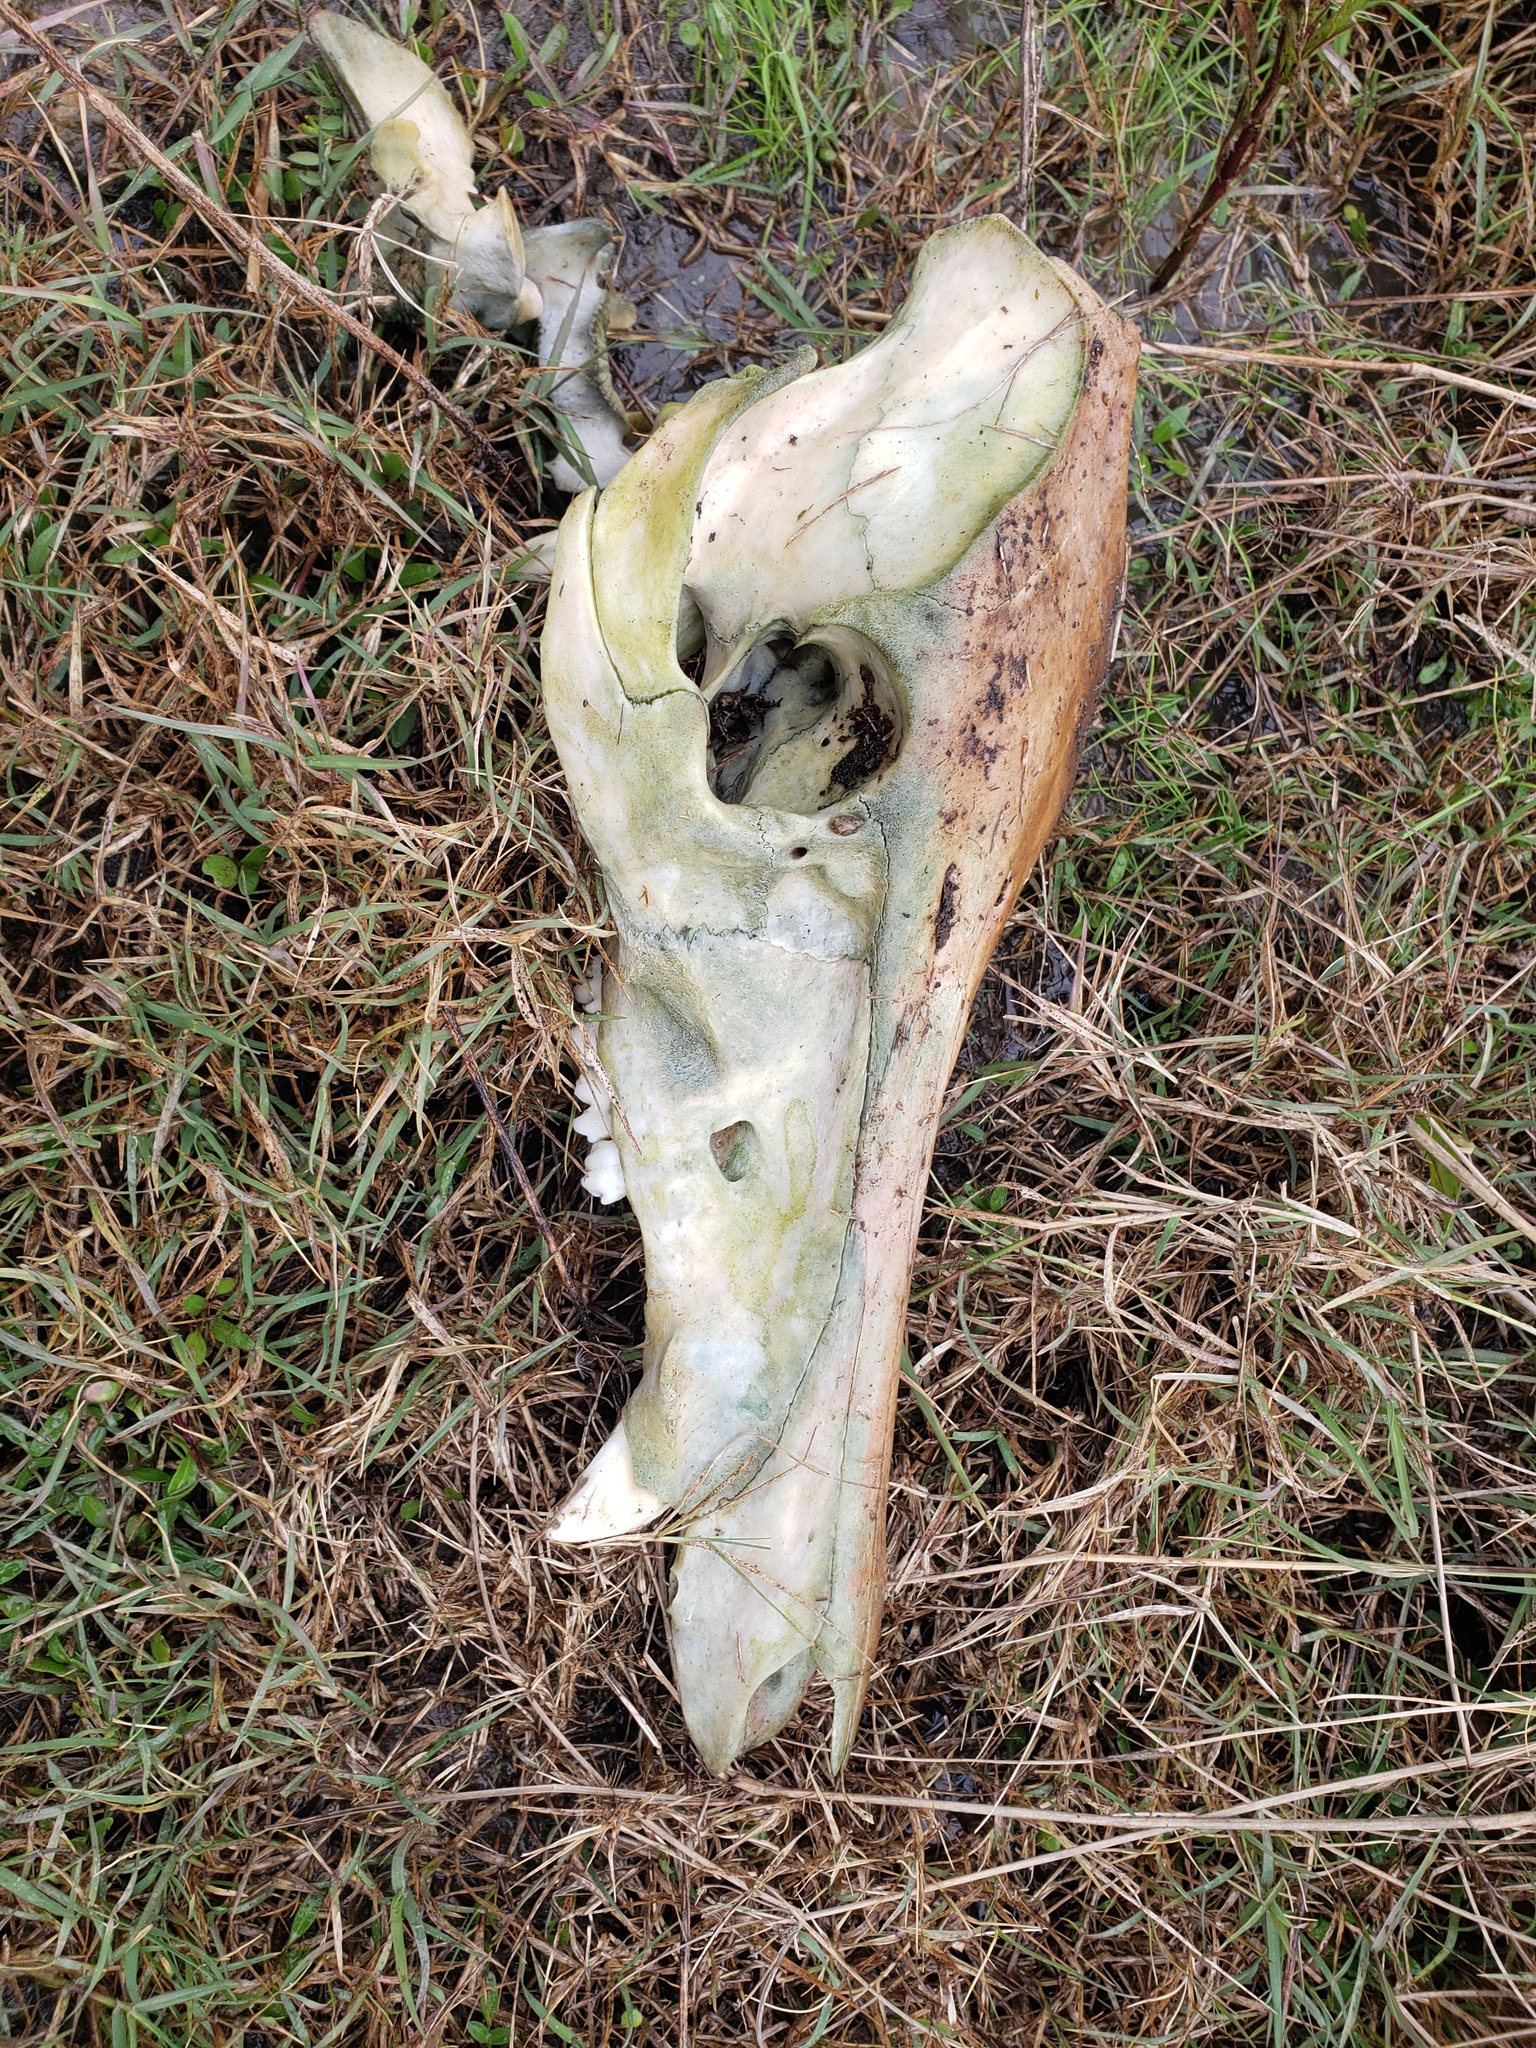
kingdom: Animalia
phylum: Chordata
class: Mammalia
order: Artiodactyla
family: Suidae
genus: Sus
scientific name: Sus scrofa
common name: Wild boar
